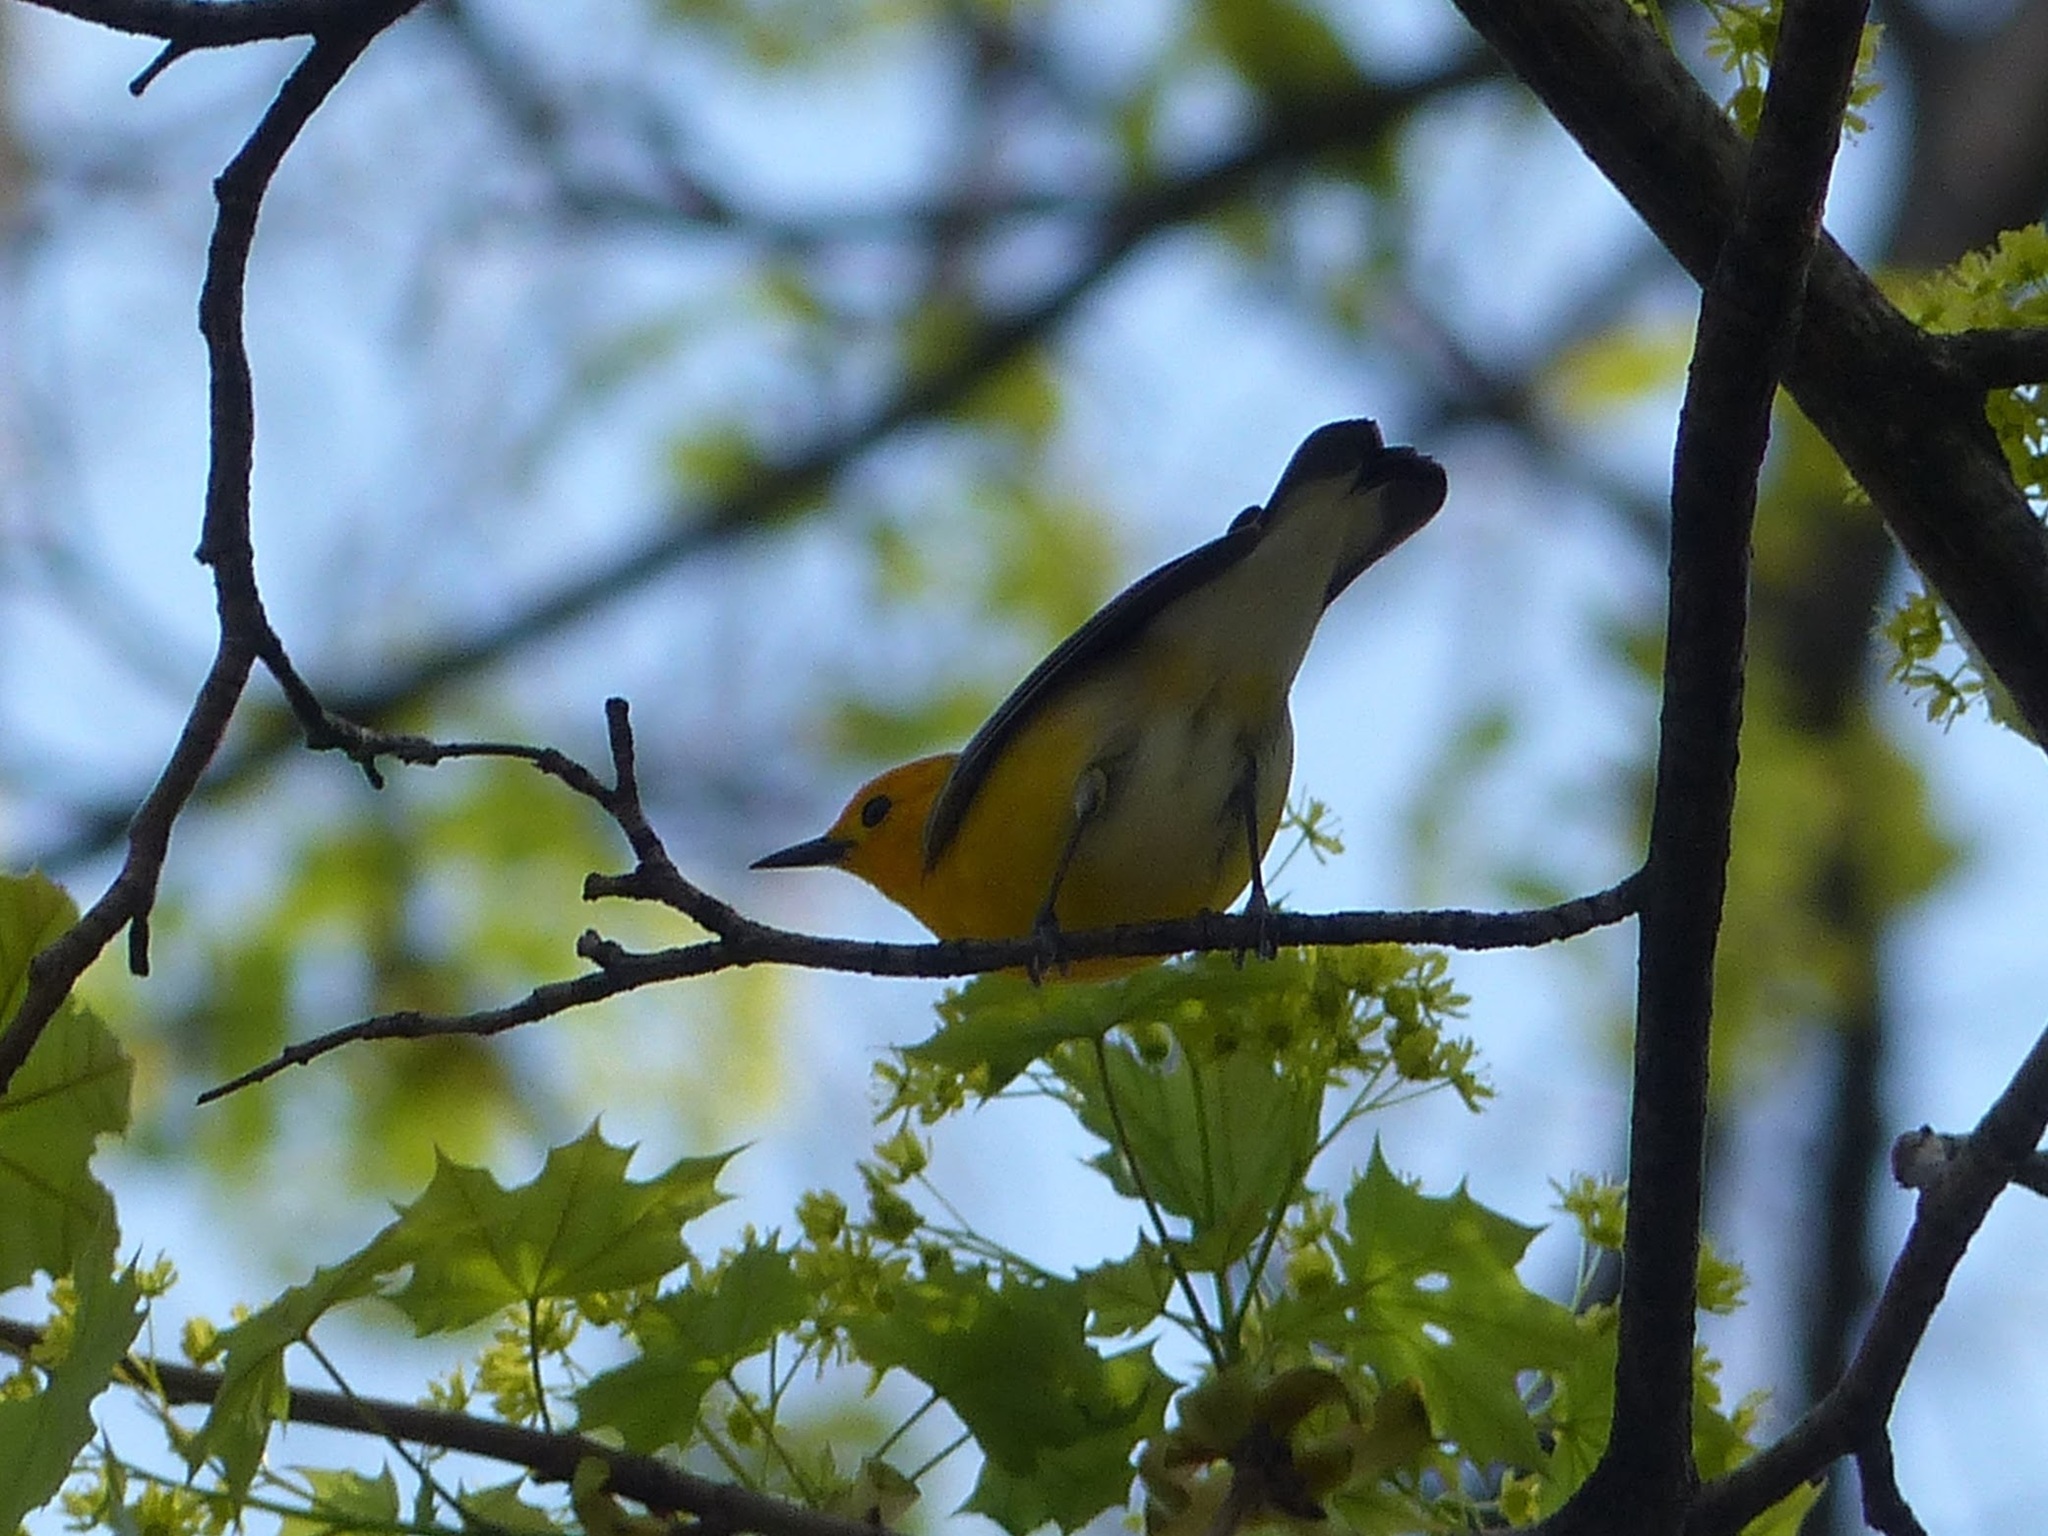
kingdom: Animalia
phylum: Chordata
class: Aves
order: Passeriformes
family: Parulidae
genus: Protonotaria
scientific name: Protonotaria citrea
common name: Prothonotary warbler
